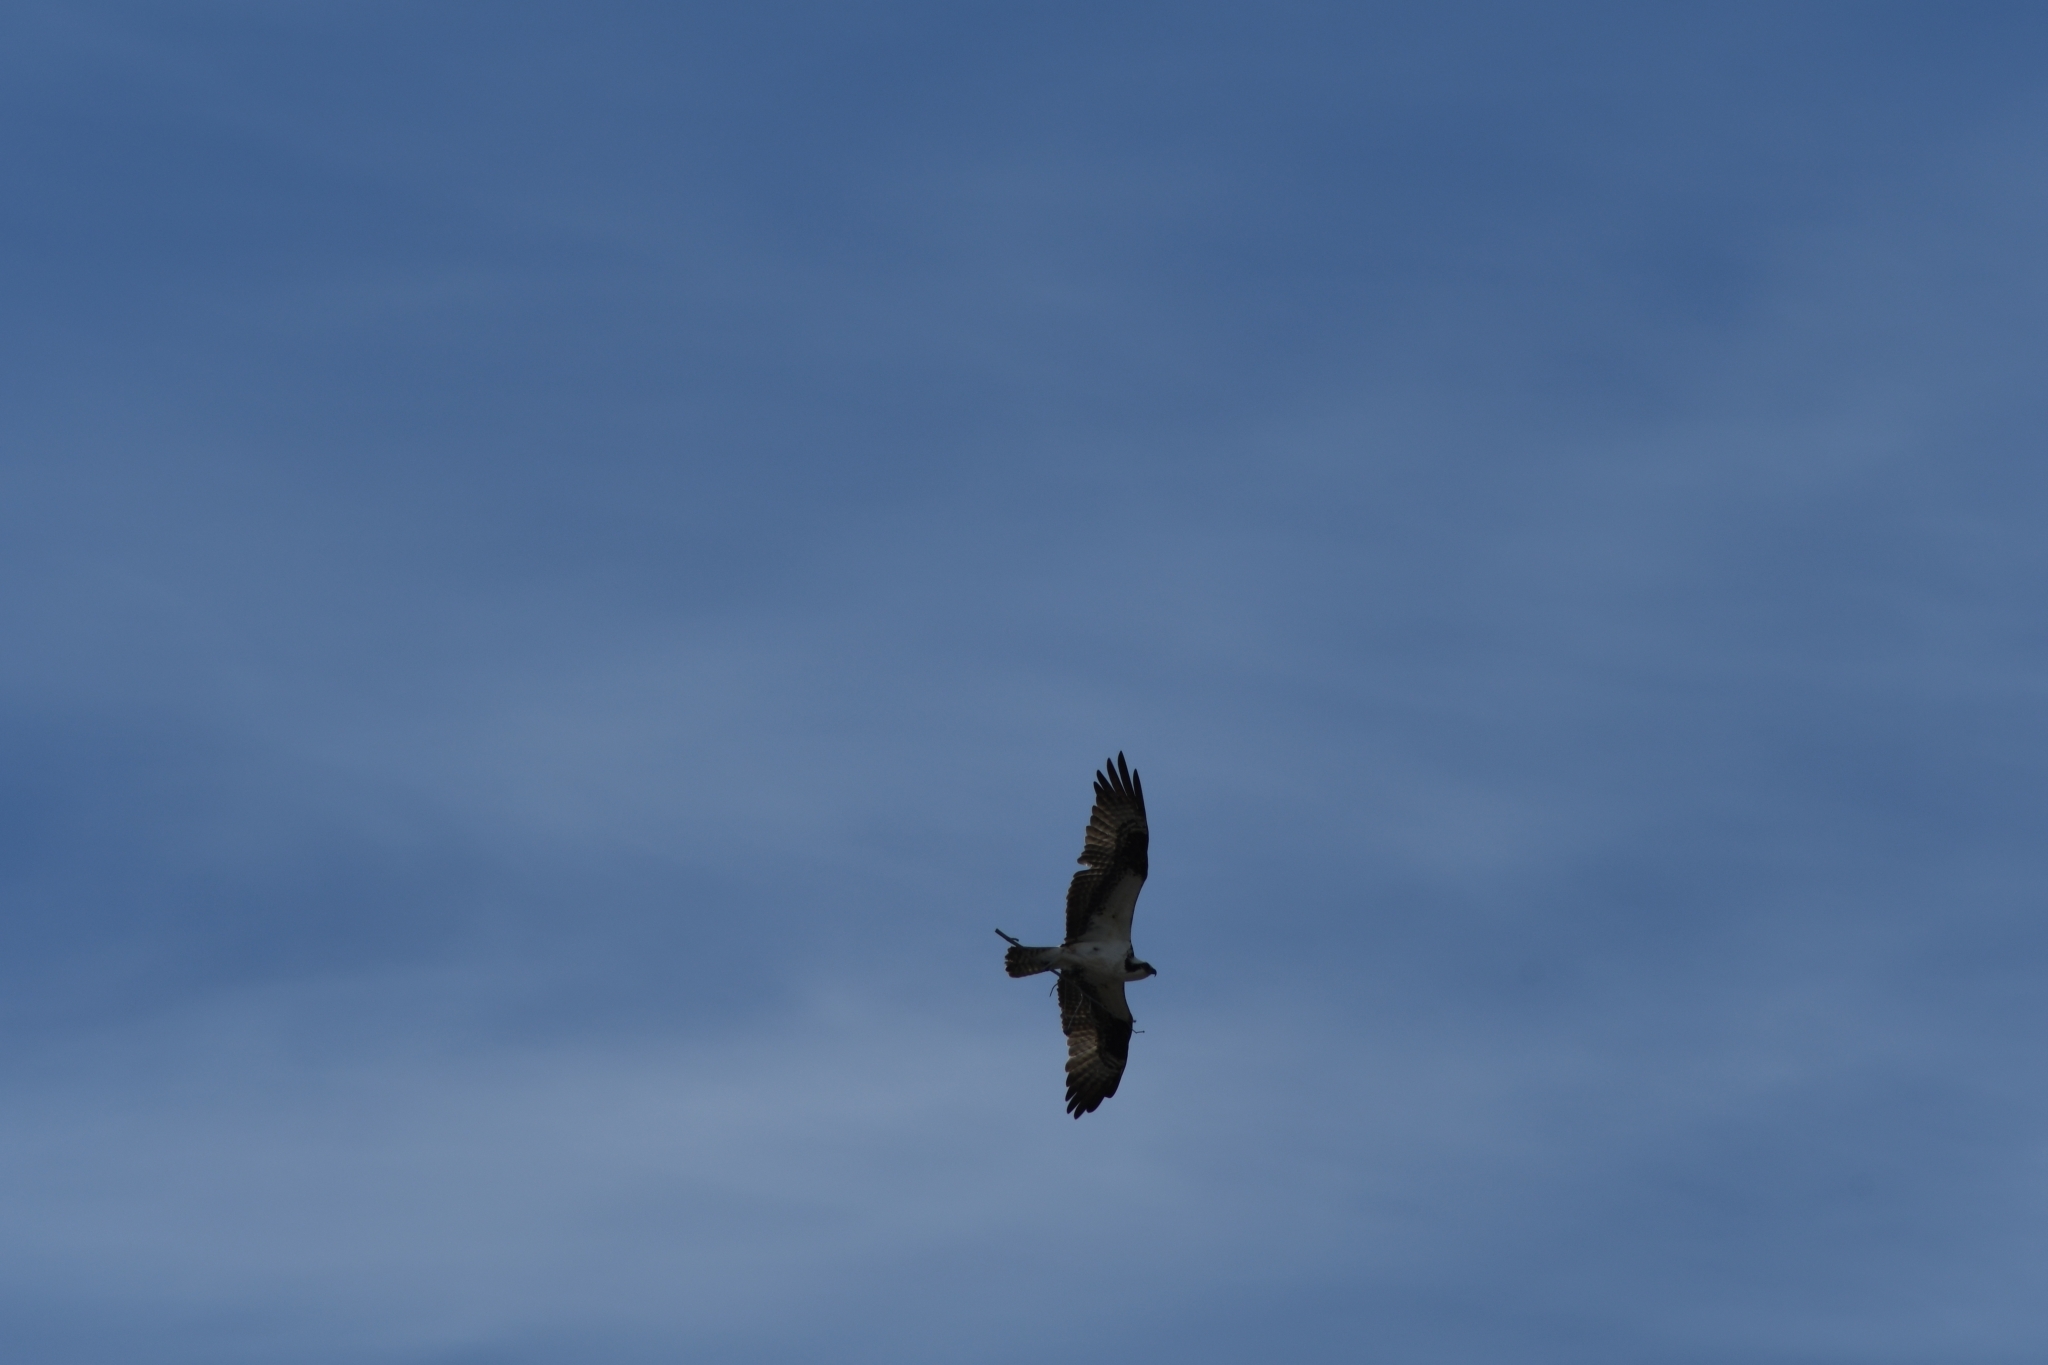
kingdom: Animalia
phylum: Chordata
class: Aves
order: Accipitriformes
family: Pandionidae
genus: Pandion
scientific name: Pandion haliaetus
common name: Osprey
